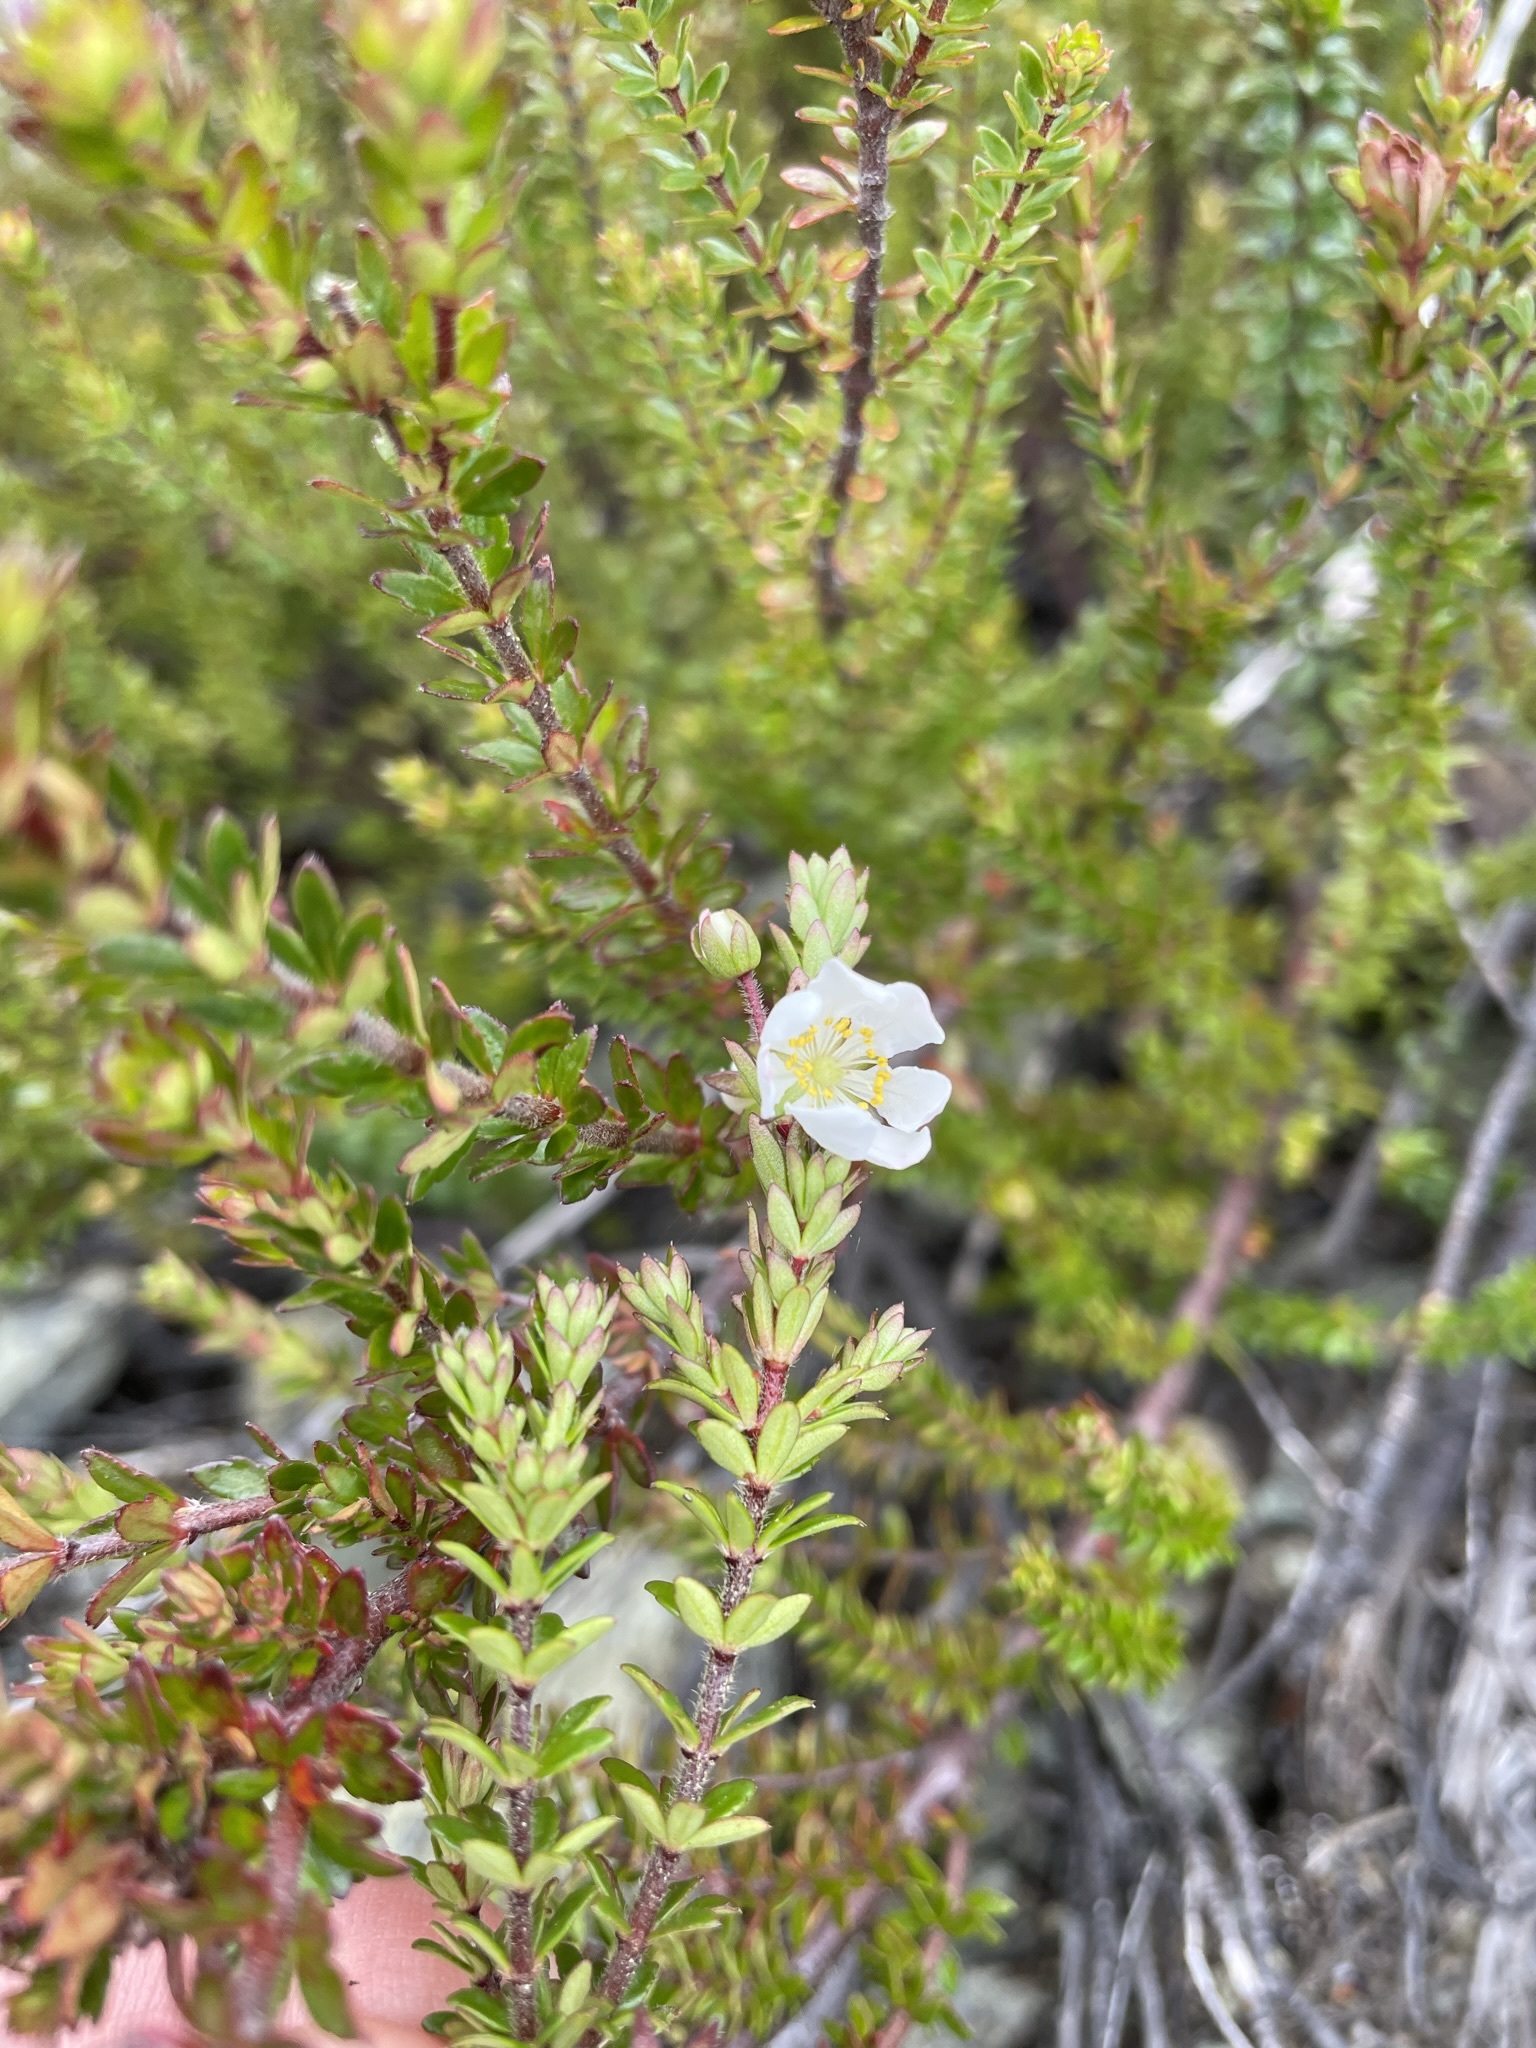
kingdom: Plantae
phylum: Tracheophyta
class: Magnoliopsida
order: Oxalidales
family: Cunoniaceae
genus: Bauera
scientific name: Bauera rubioides
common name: River-rose
